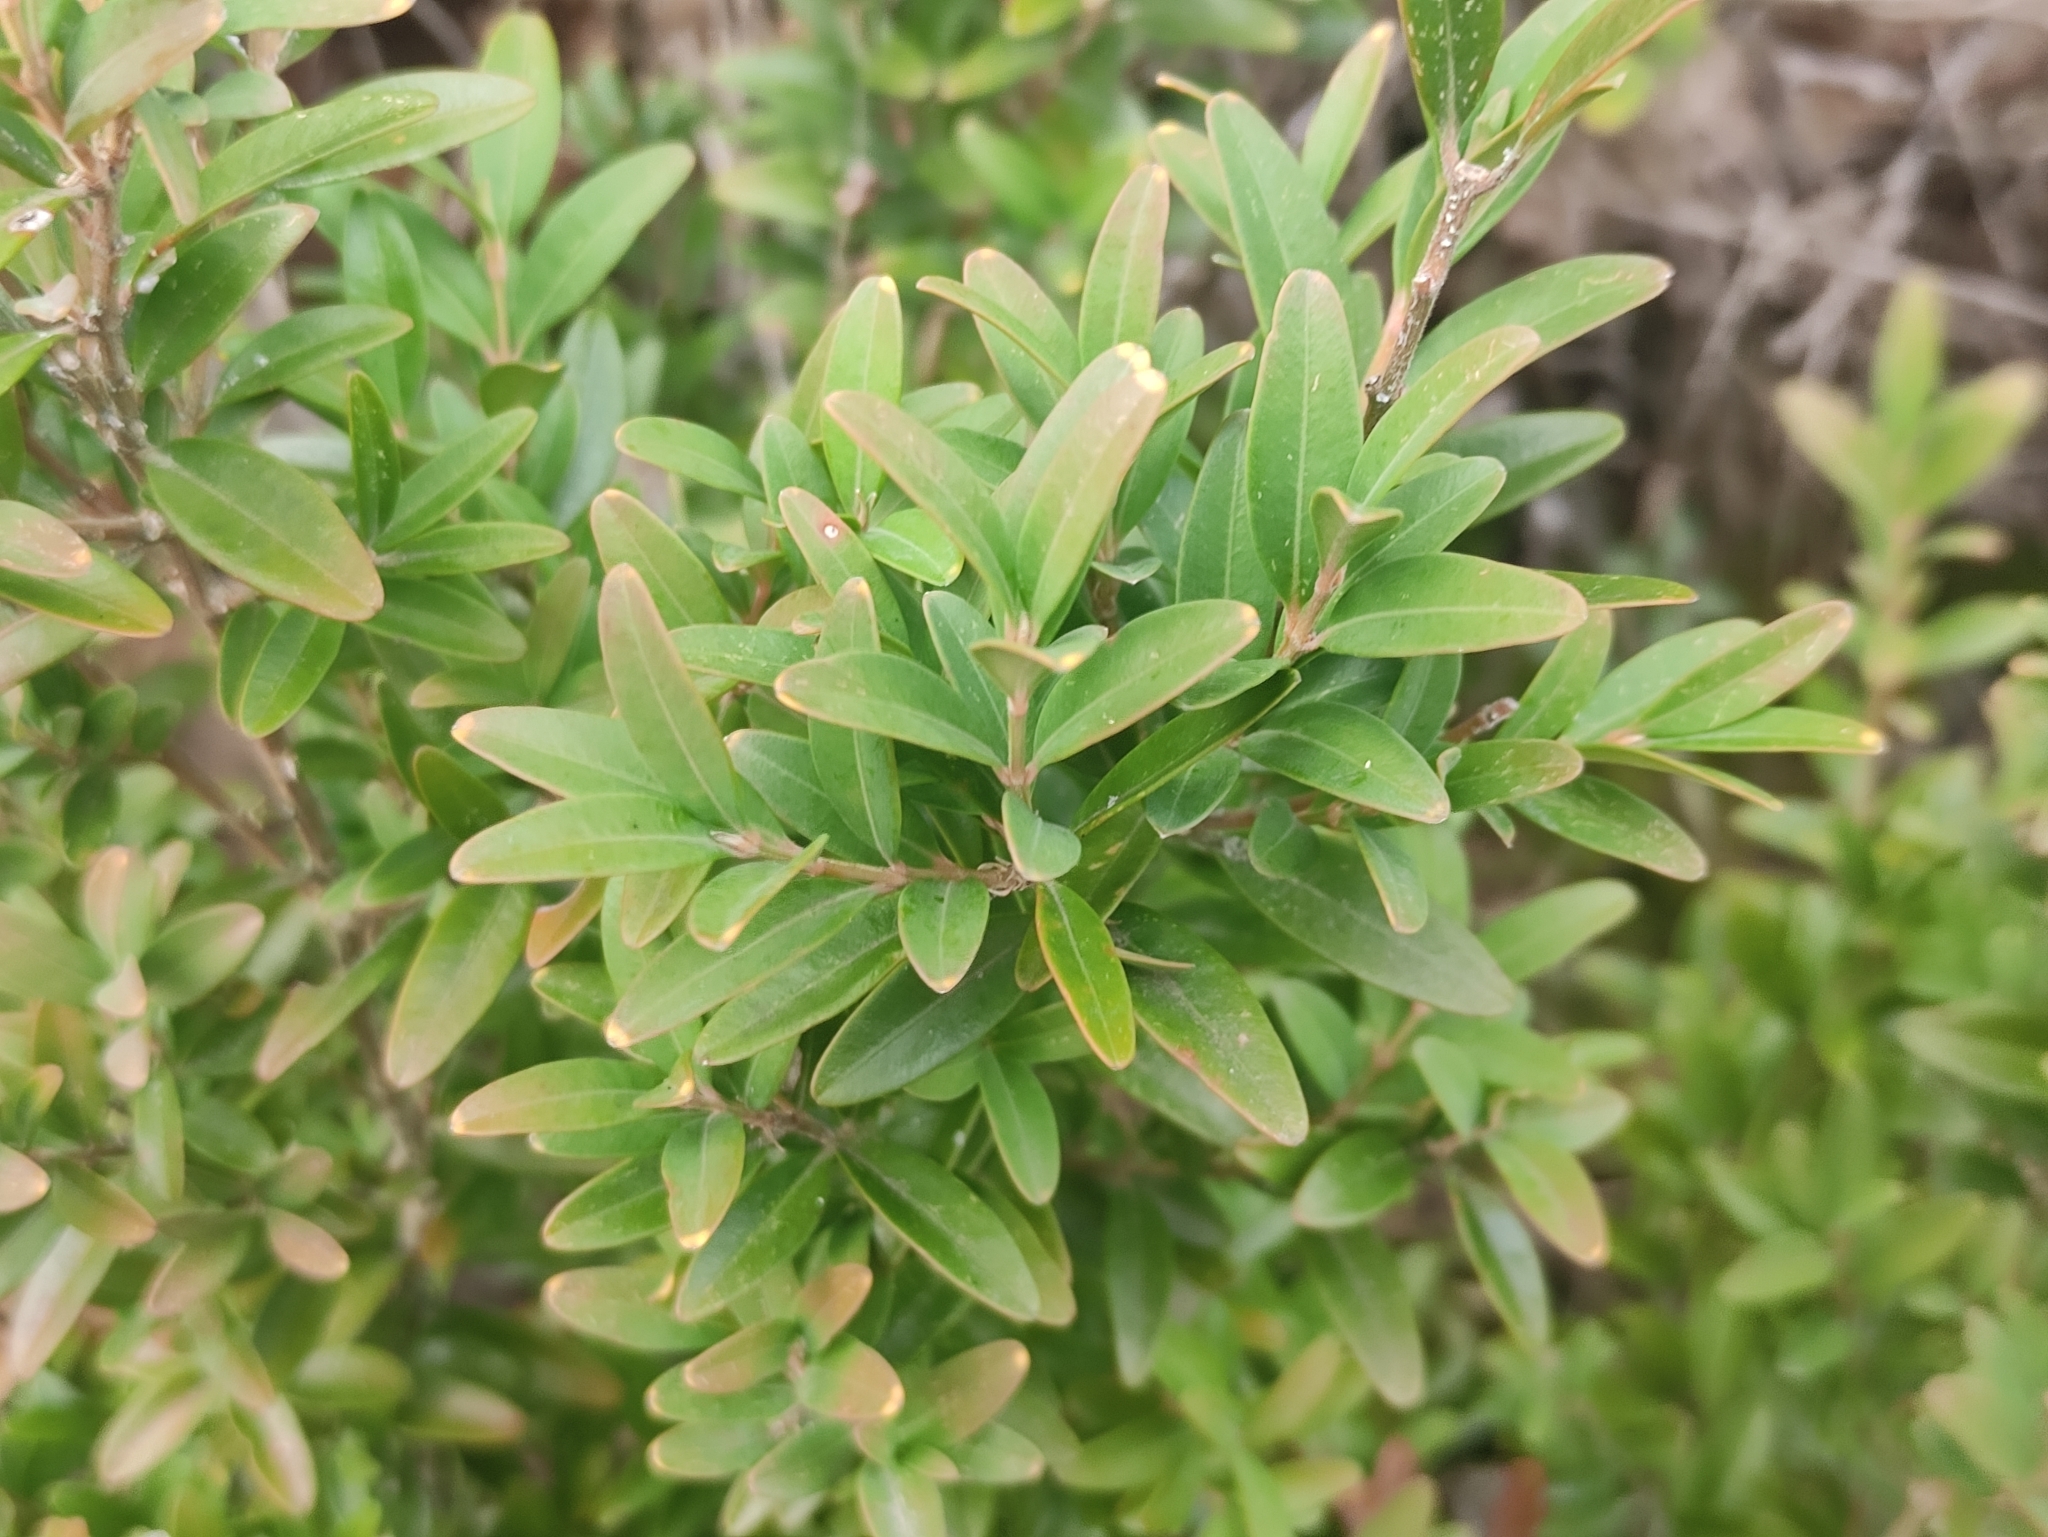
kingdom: Plantae
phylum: Tracheophyta
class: Magnoliopsida
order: Buxales
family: Buxaceae
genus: Buxus
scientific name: Buxus sempervirens
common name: Box
